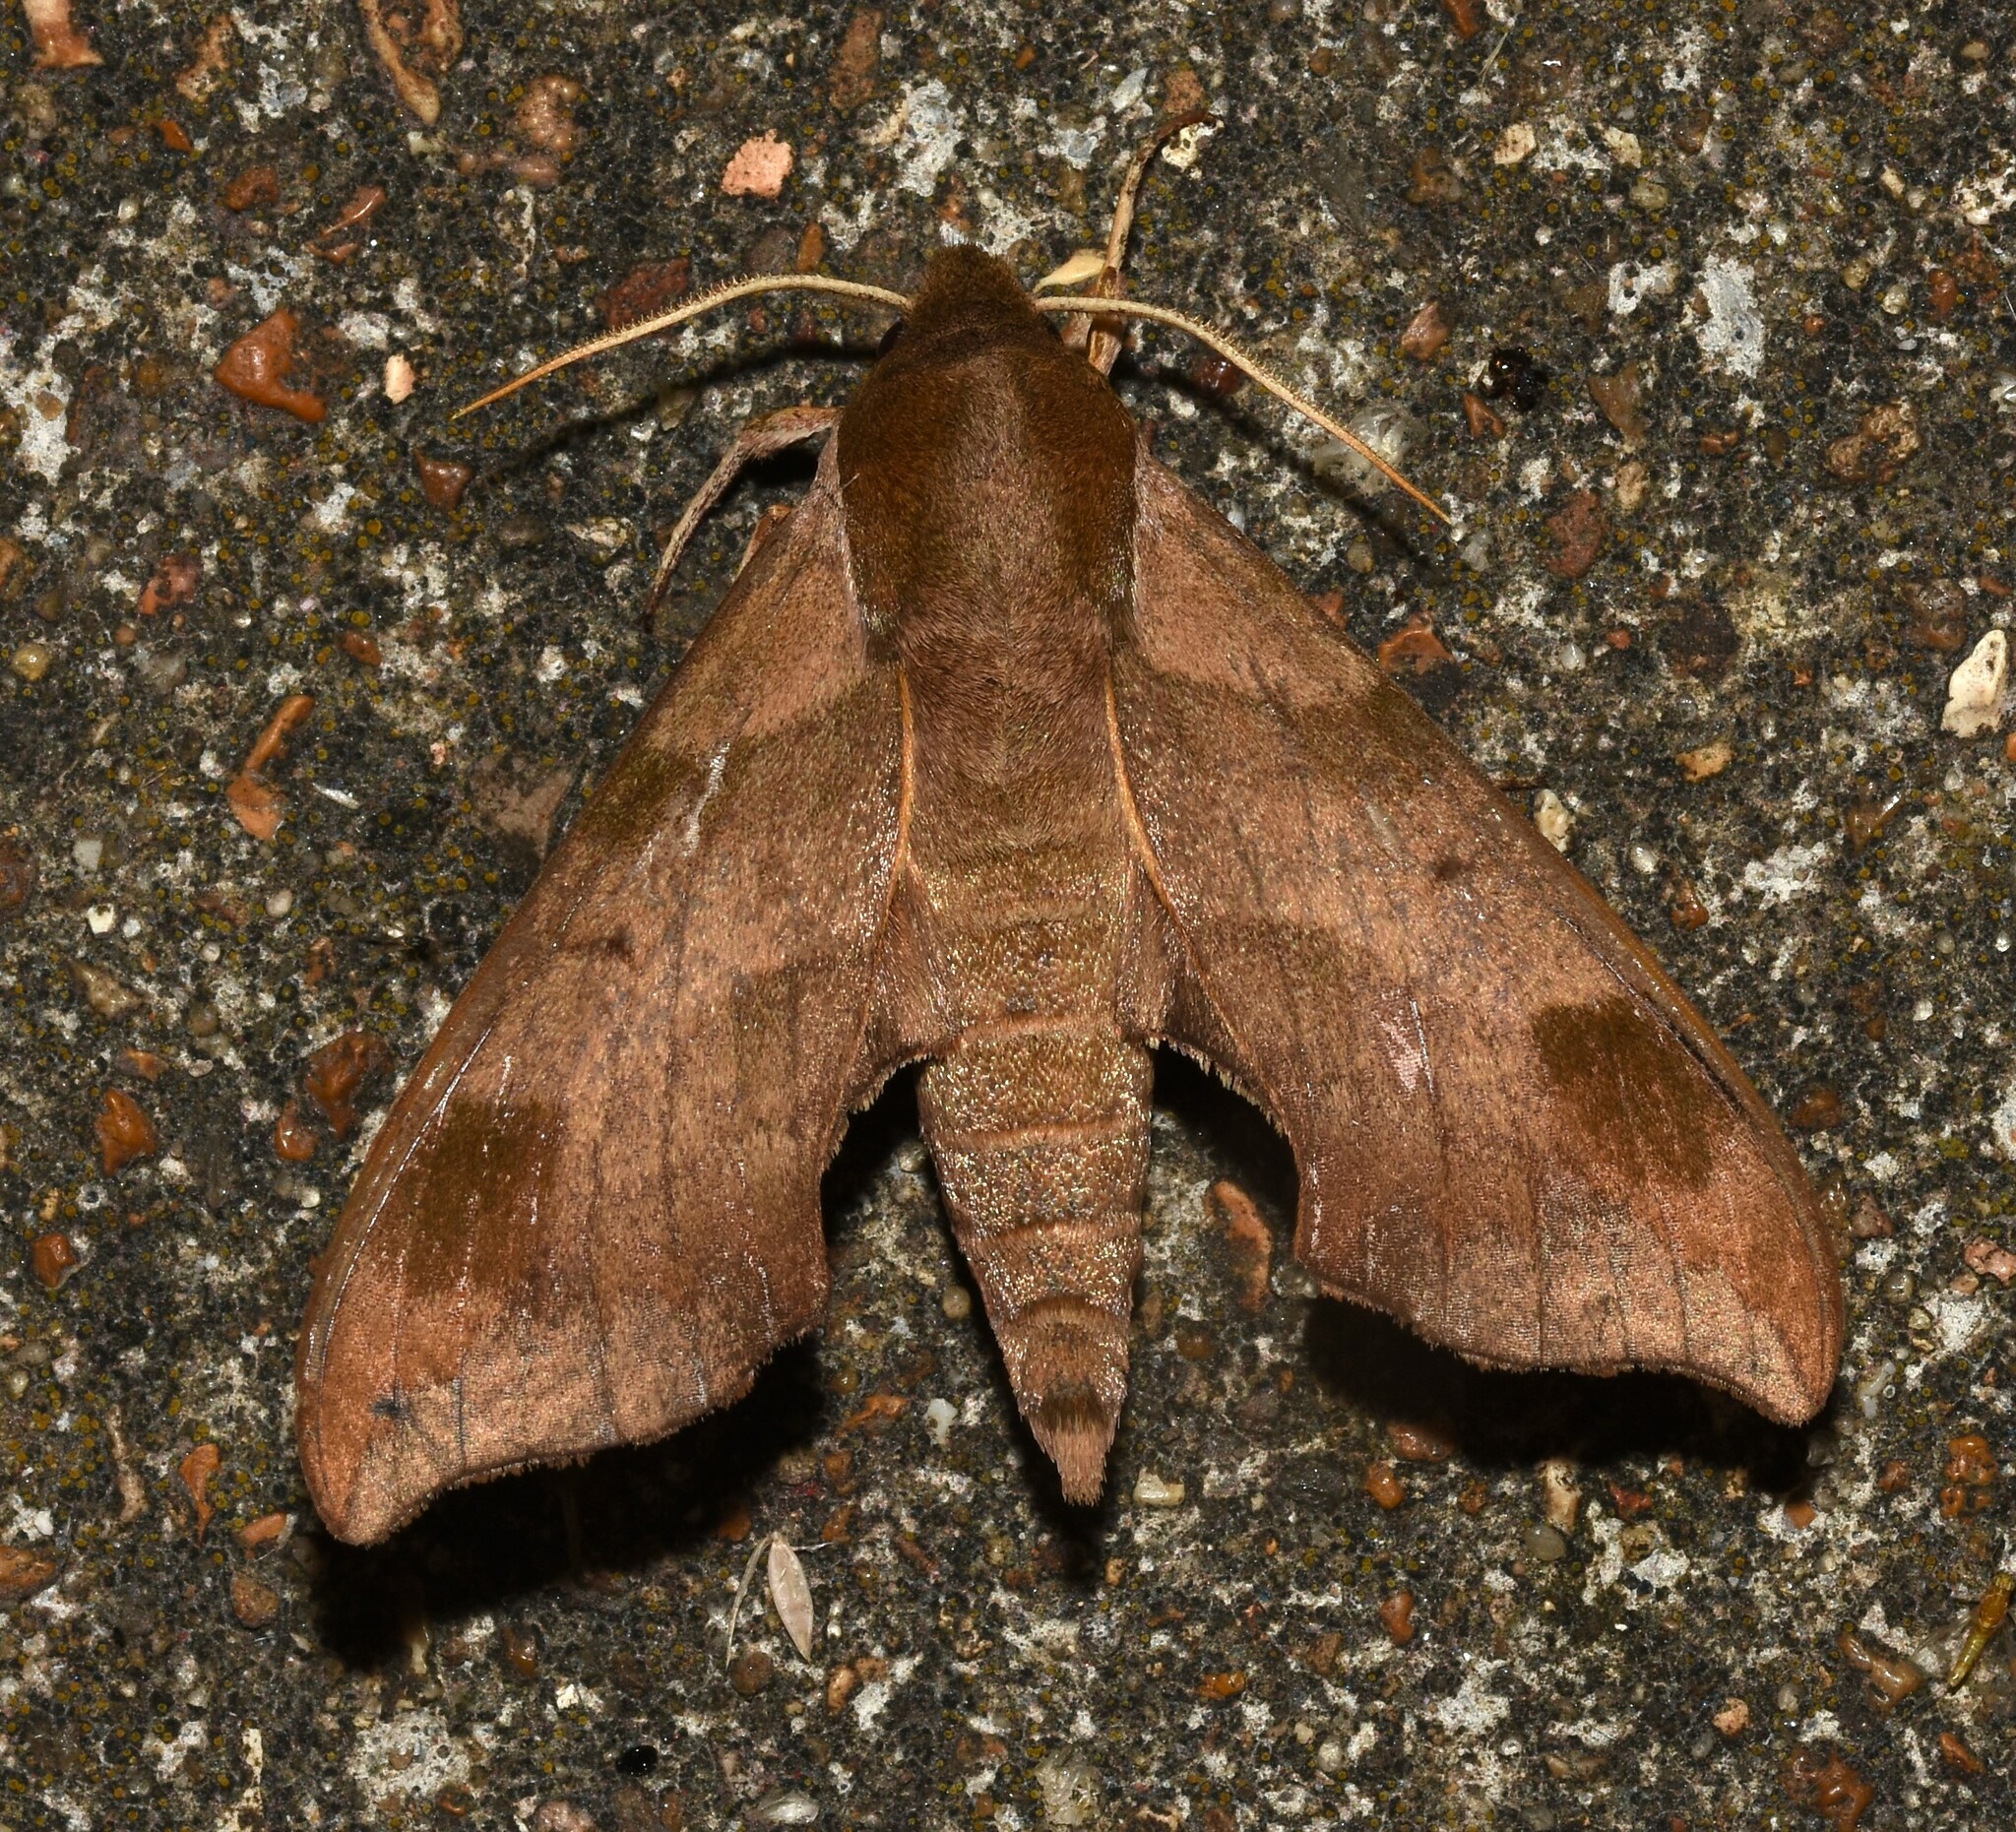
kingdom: Animalia
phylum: Arthropoda
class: Insecta
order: Lepidoptera
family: Sphingidae
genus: Darapsa
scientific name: Darapsa myron
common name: Hog sphinx
